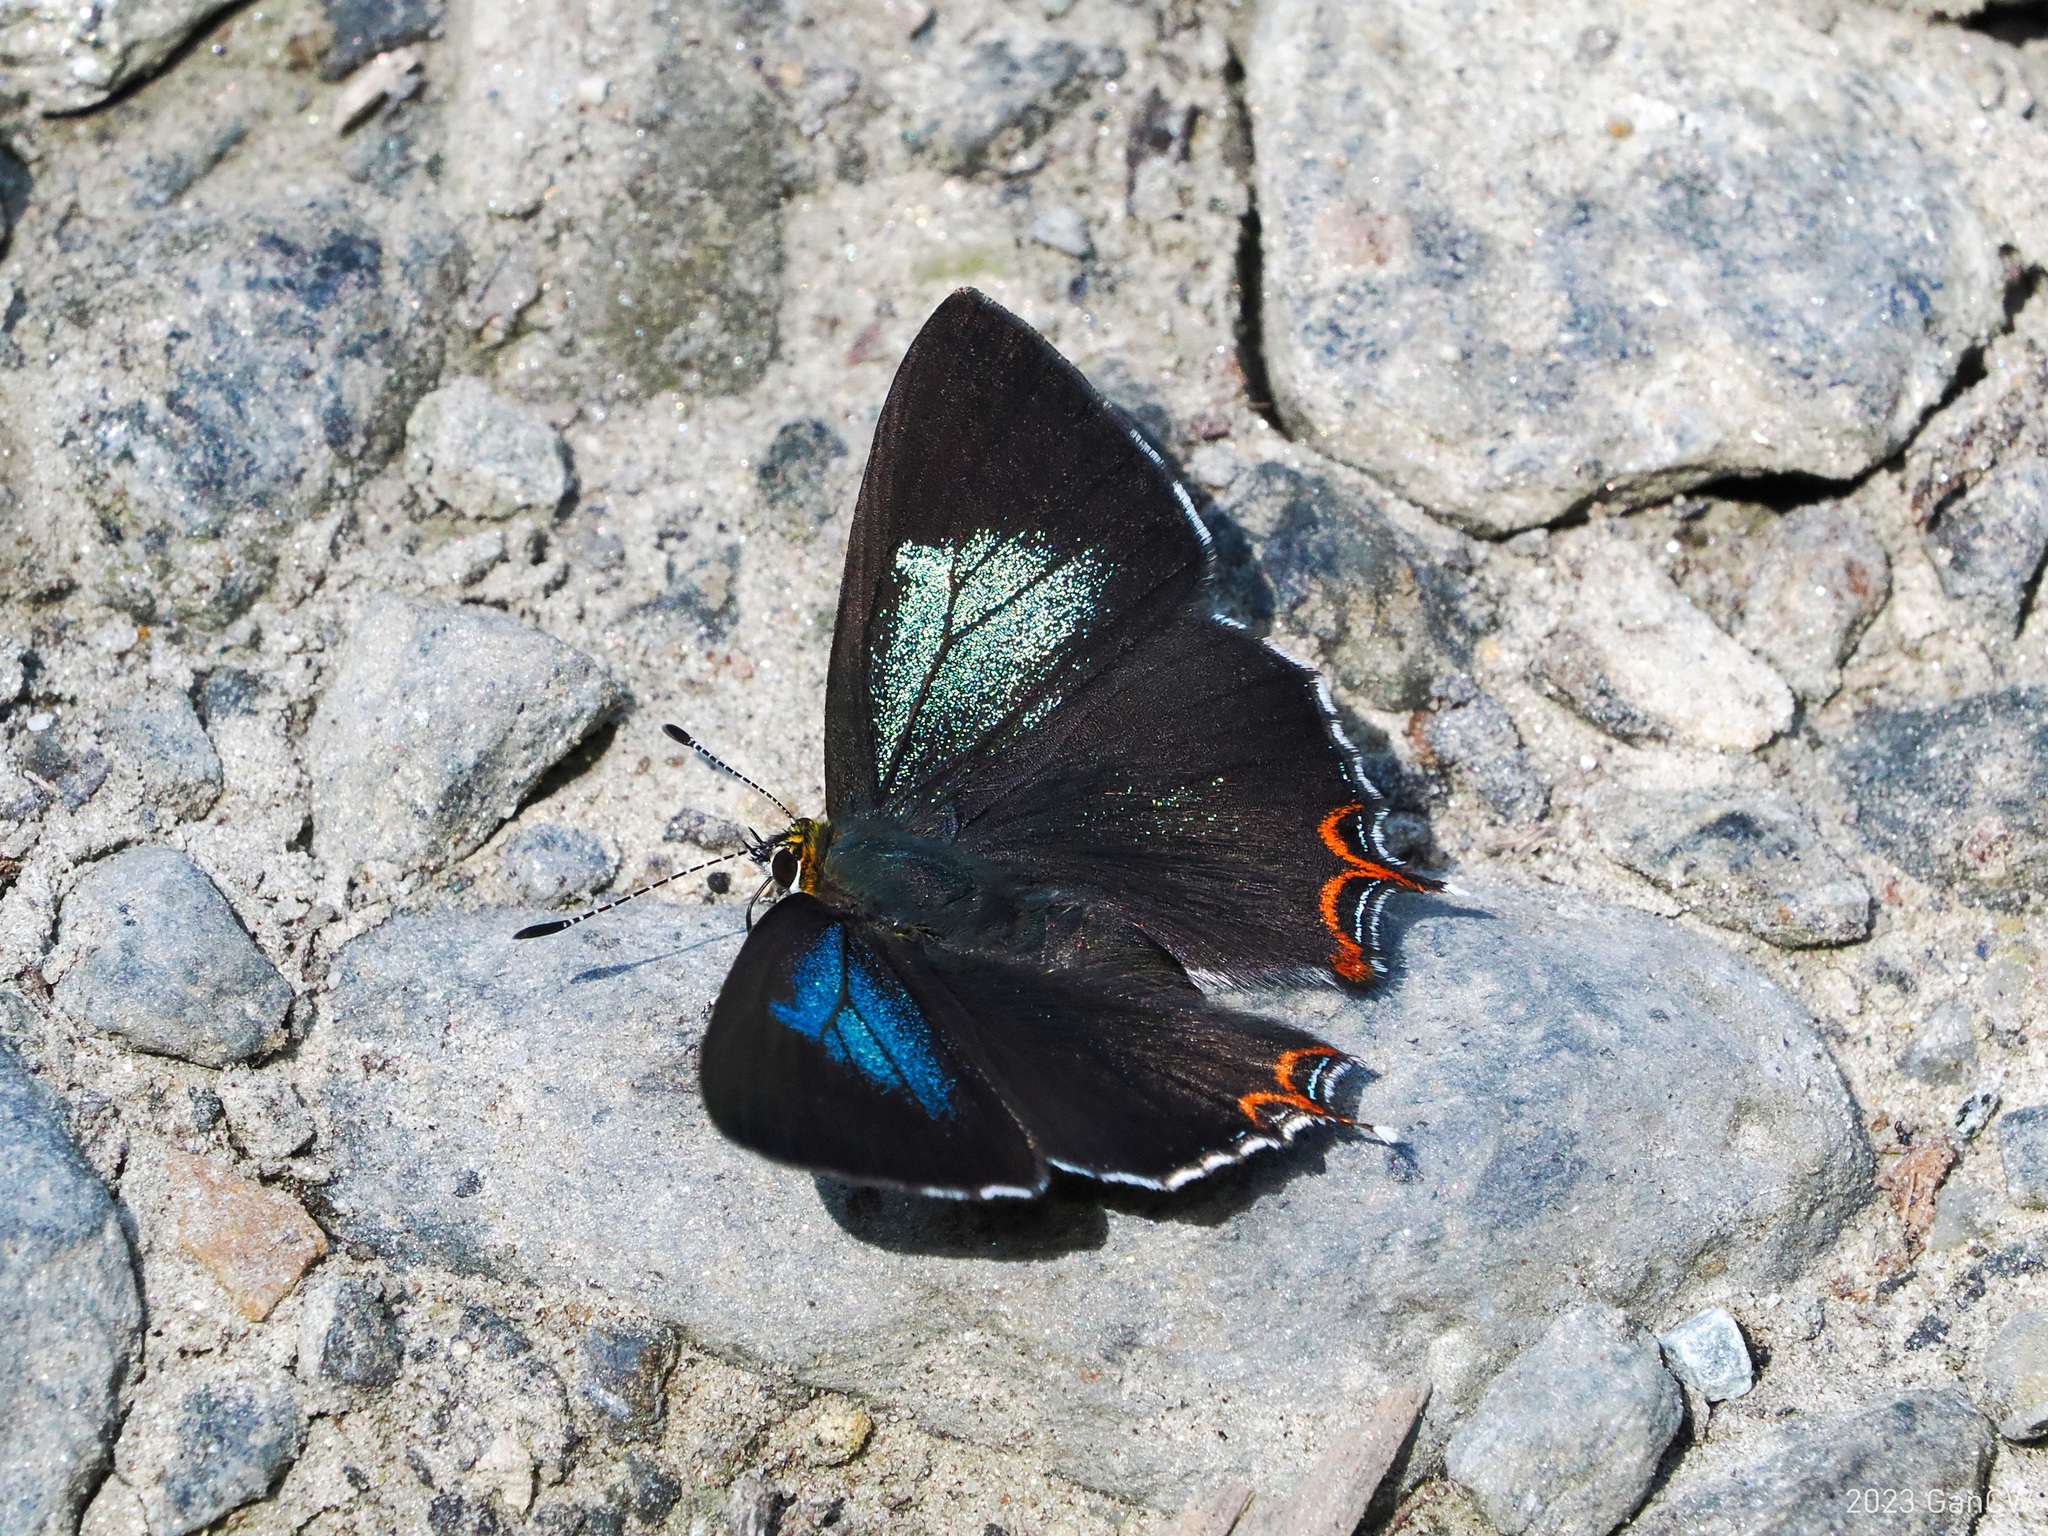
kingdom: Animalia
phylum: Arthropoda
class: Insecta
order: Lepidoptera
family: Lycaenidae
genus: Heliophorus
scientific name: Heliophorus tamu
